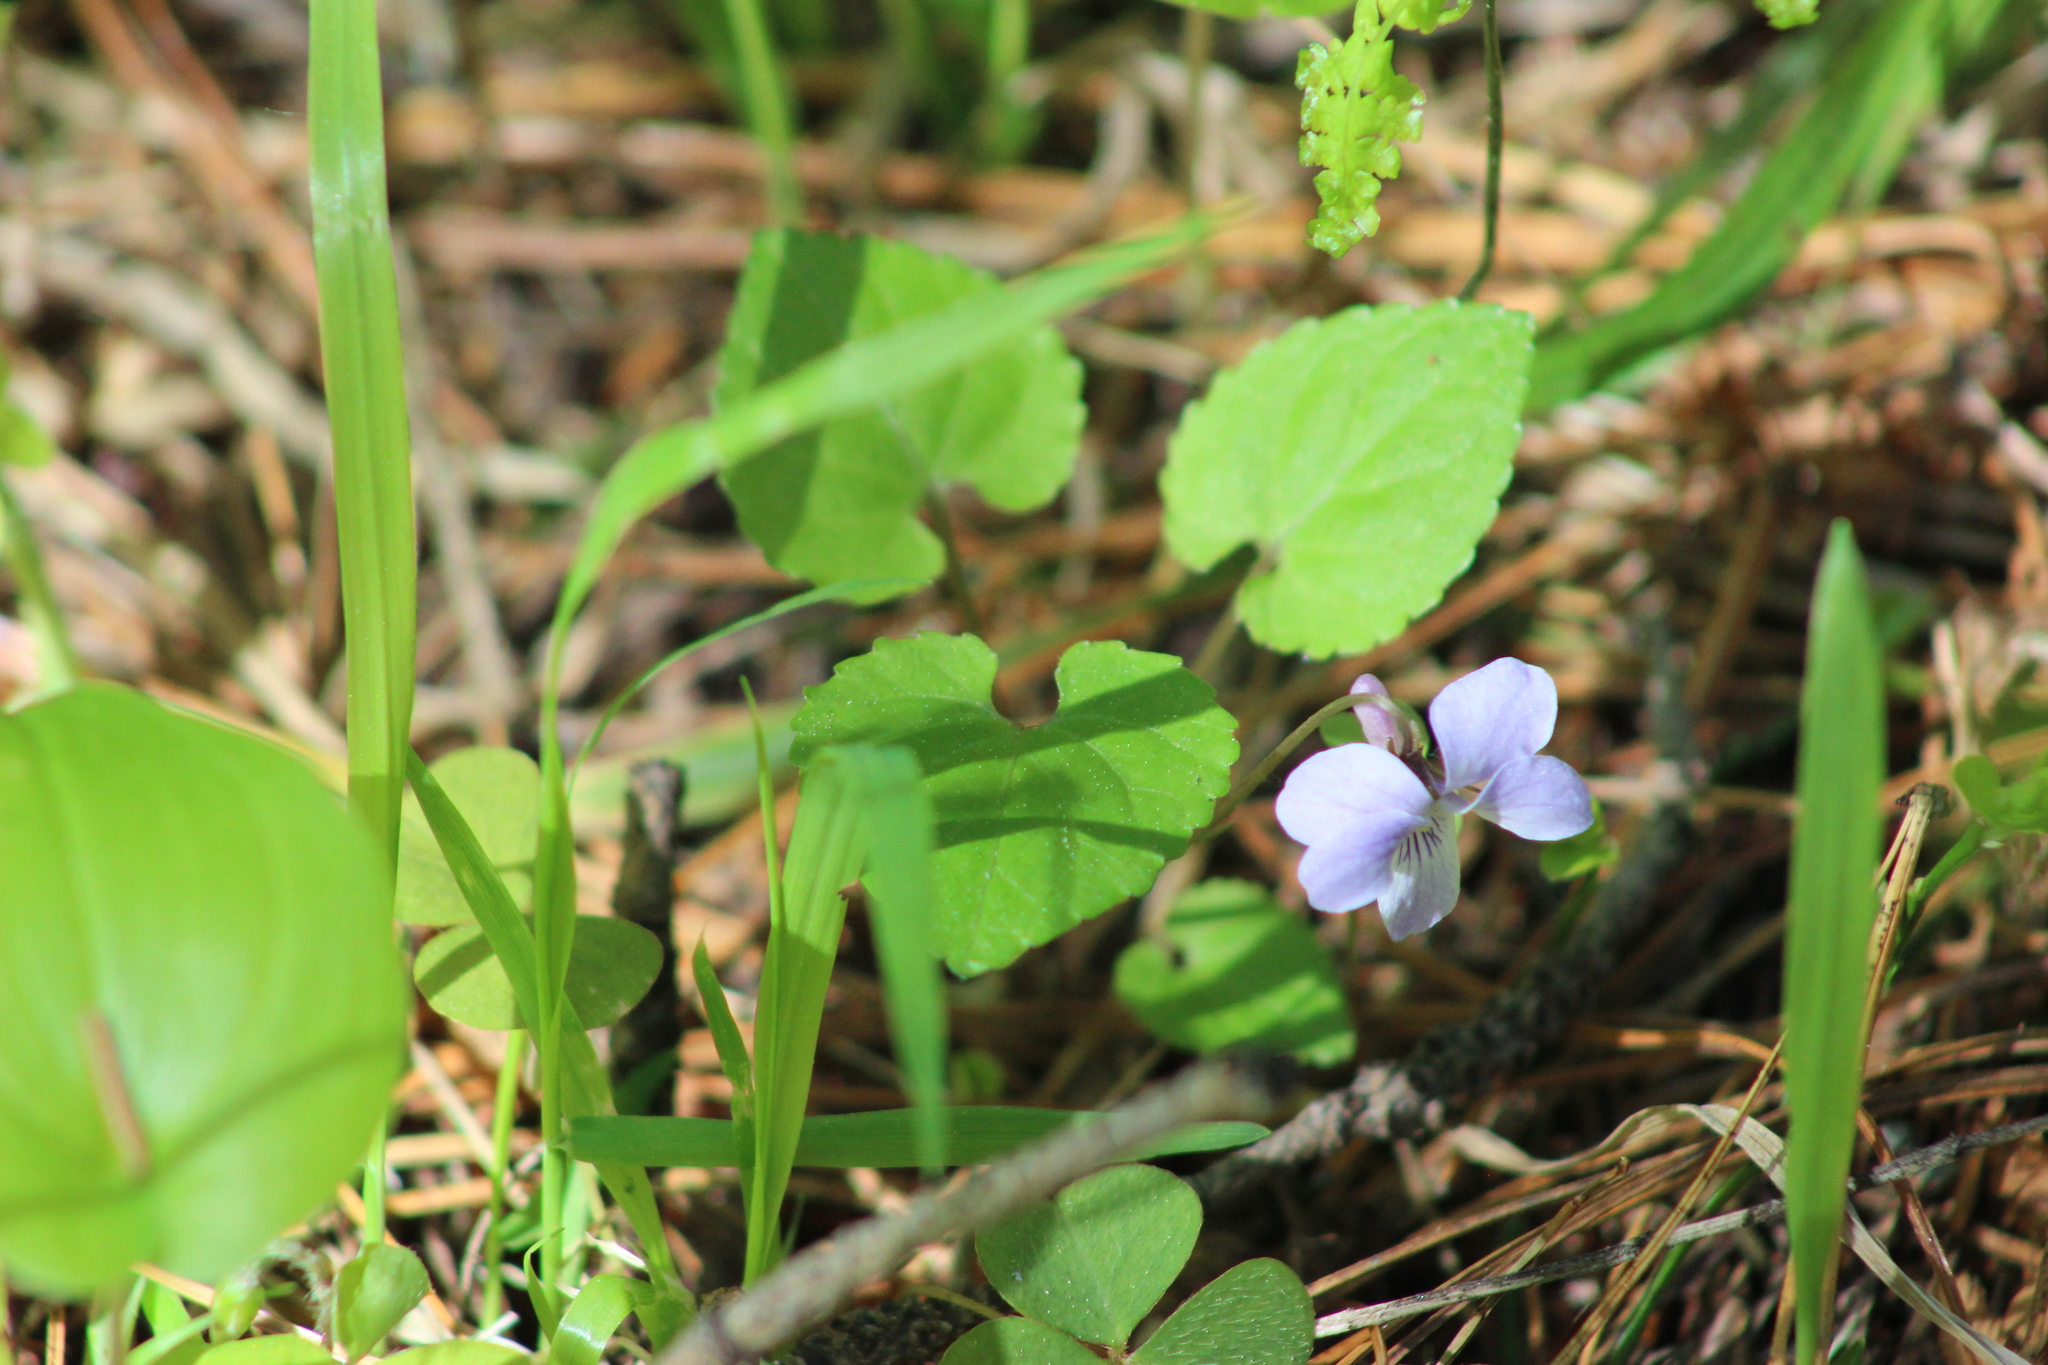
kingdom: Plantae
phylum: Tracheophyta
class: Magnoliopsida
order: Malpighiales
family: Violaceae
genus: Viola
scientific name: Viola selkirkii
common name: Selkirk's violet
